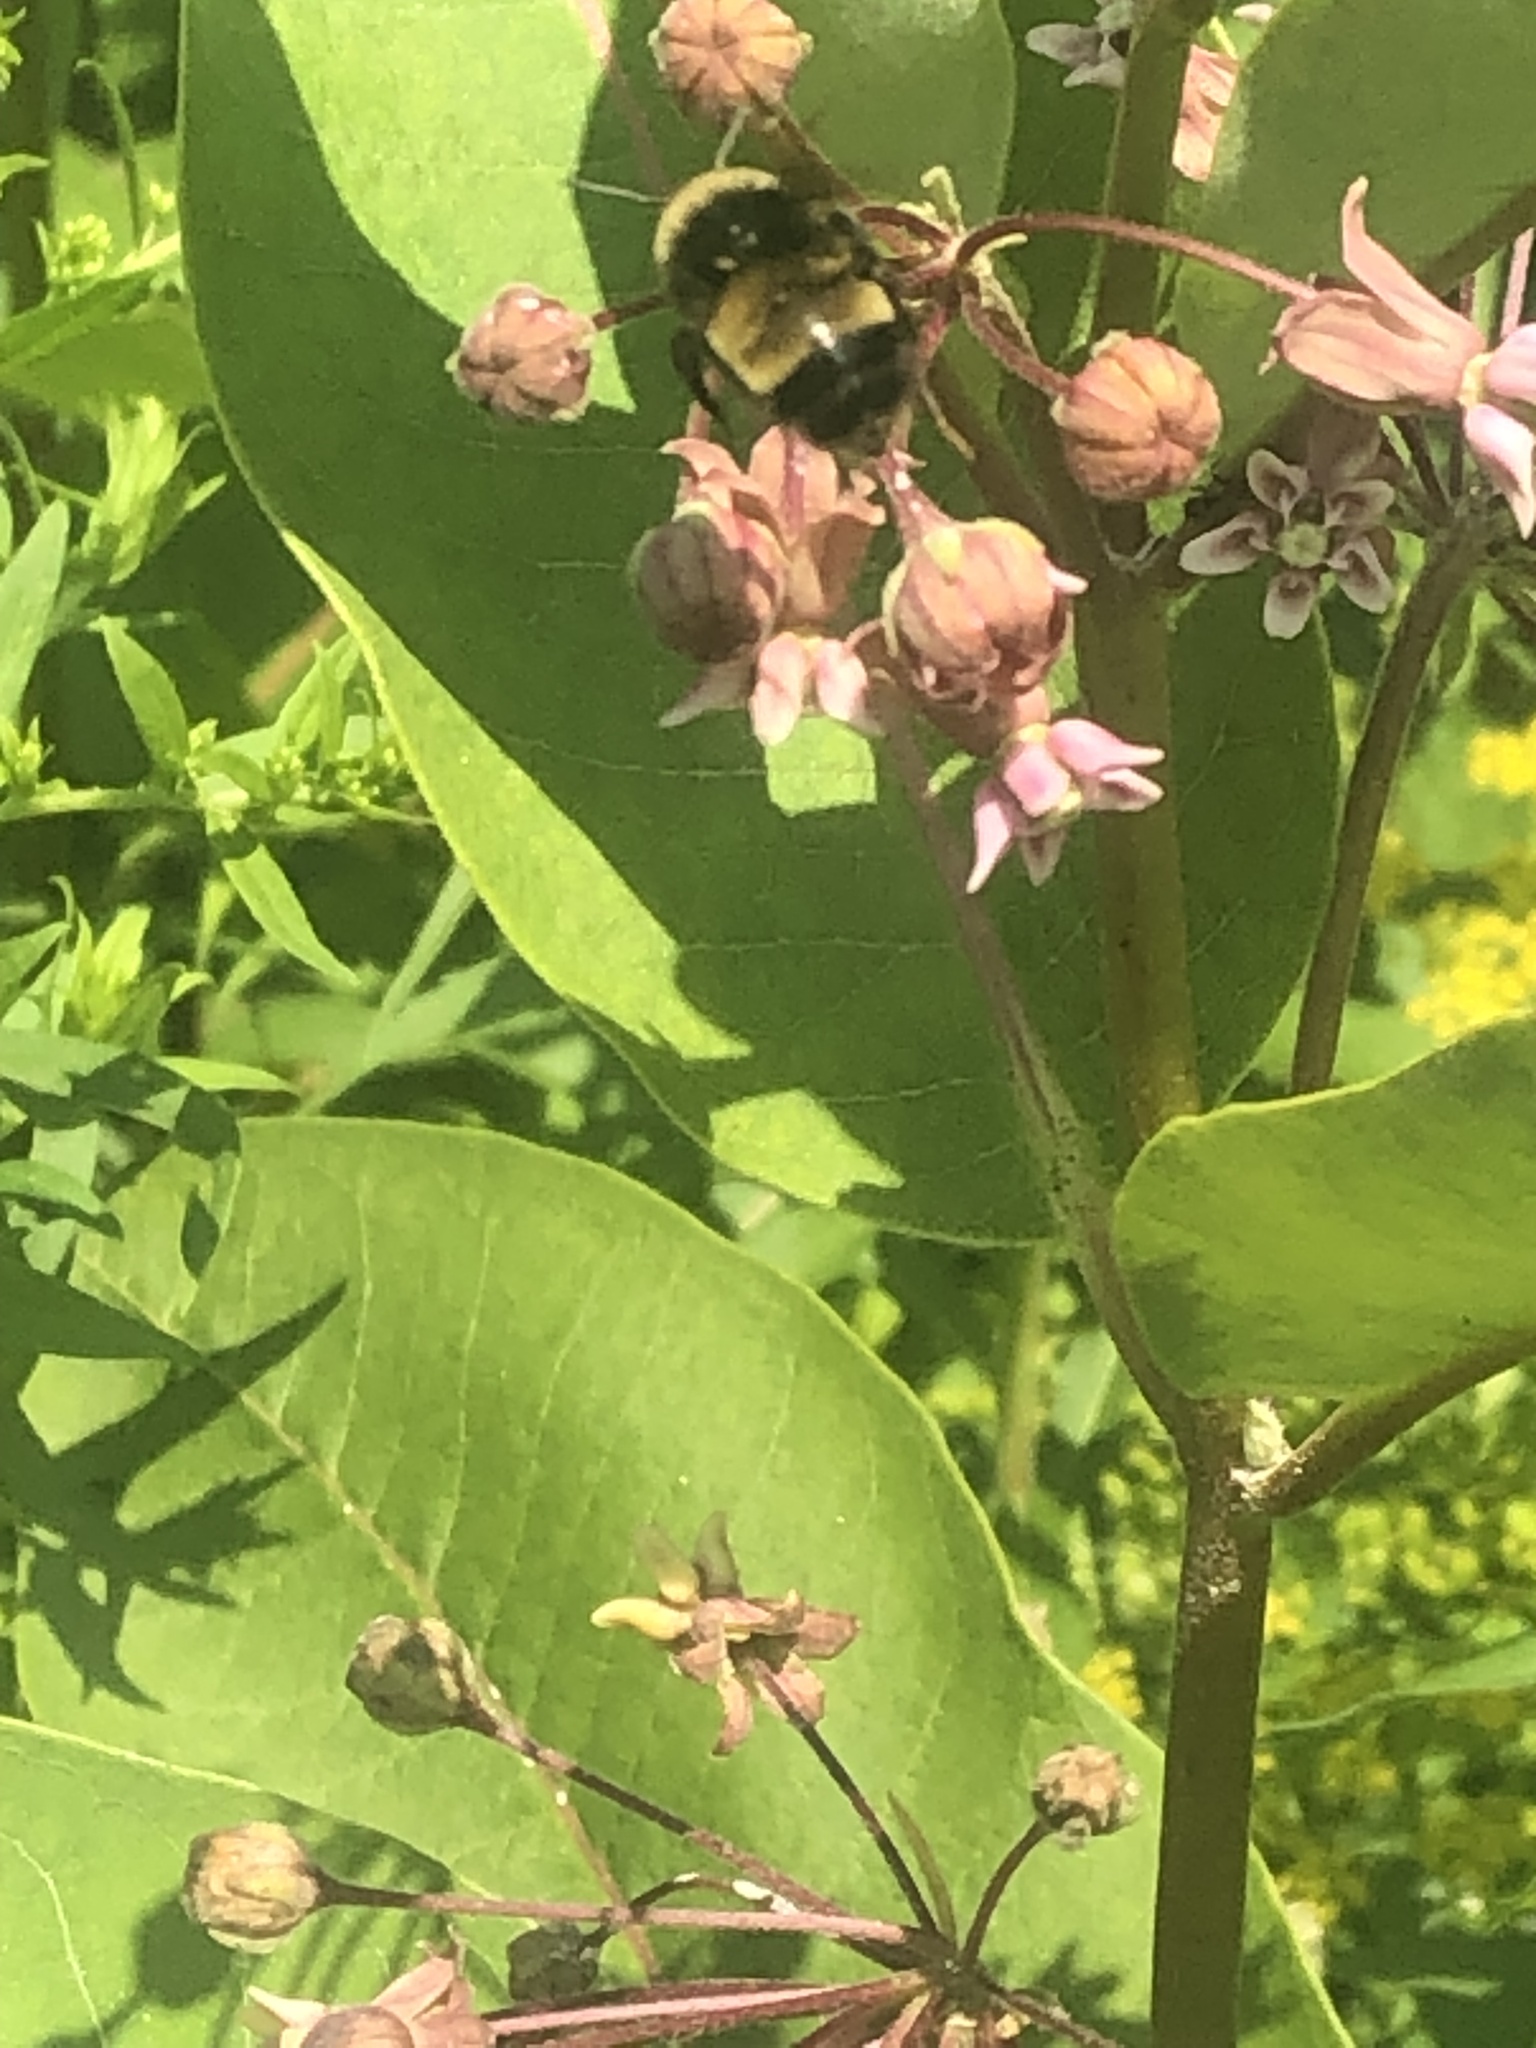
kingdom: Animalia
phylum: Arthropoda
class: Insecta
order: Hymenoptera
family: Apidae
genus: Bombus
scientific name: Bombus terricola
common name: Yellow-banded bumble bee
